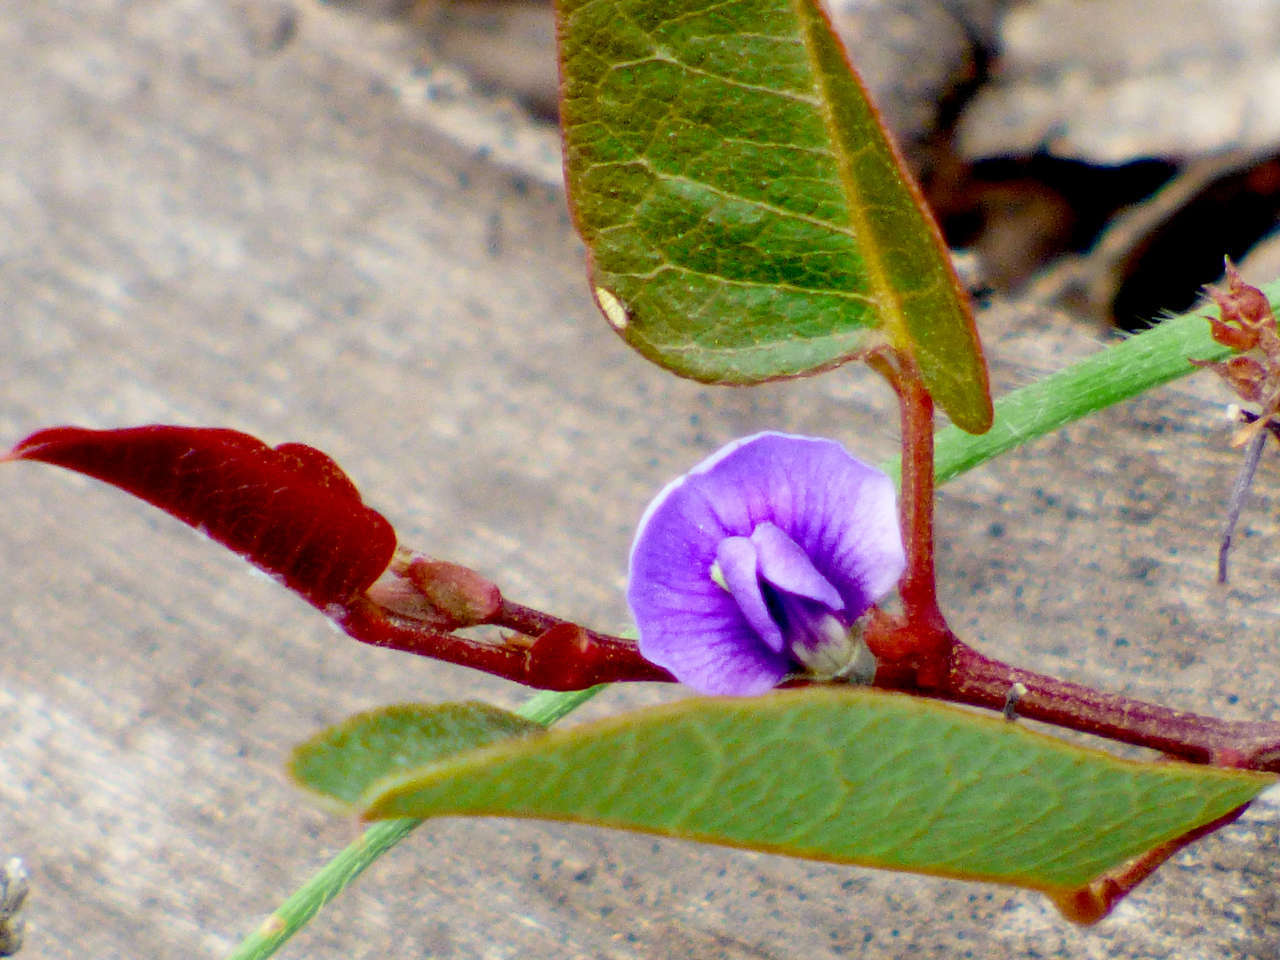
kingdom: Plantae
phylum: Tracheophyta
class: Magnoliopsida
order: Fabales
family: Fabaceae
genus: Hardenbergia
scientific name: Hardenbergia violacea
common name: Coral-pea
